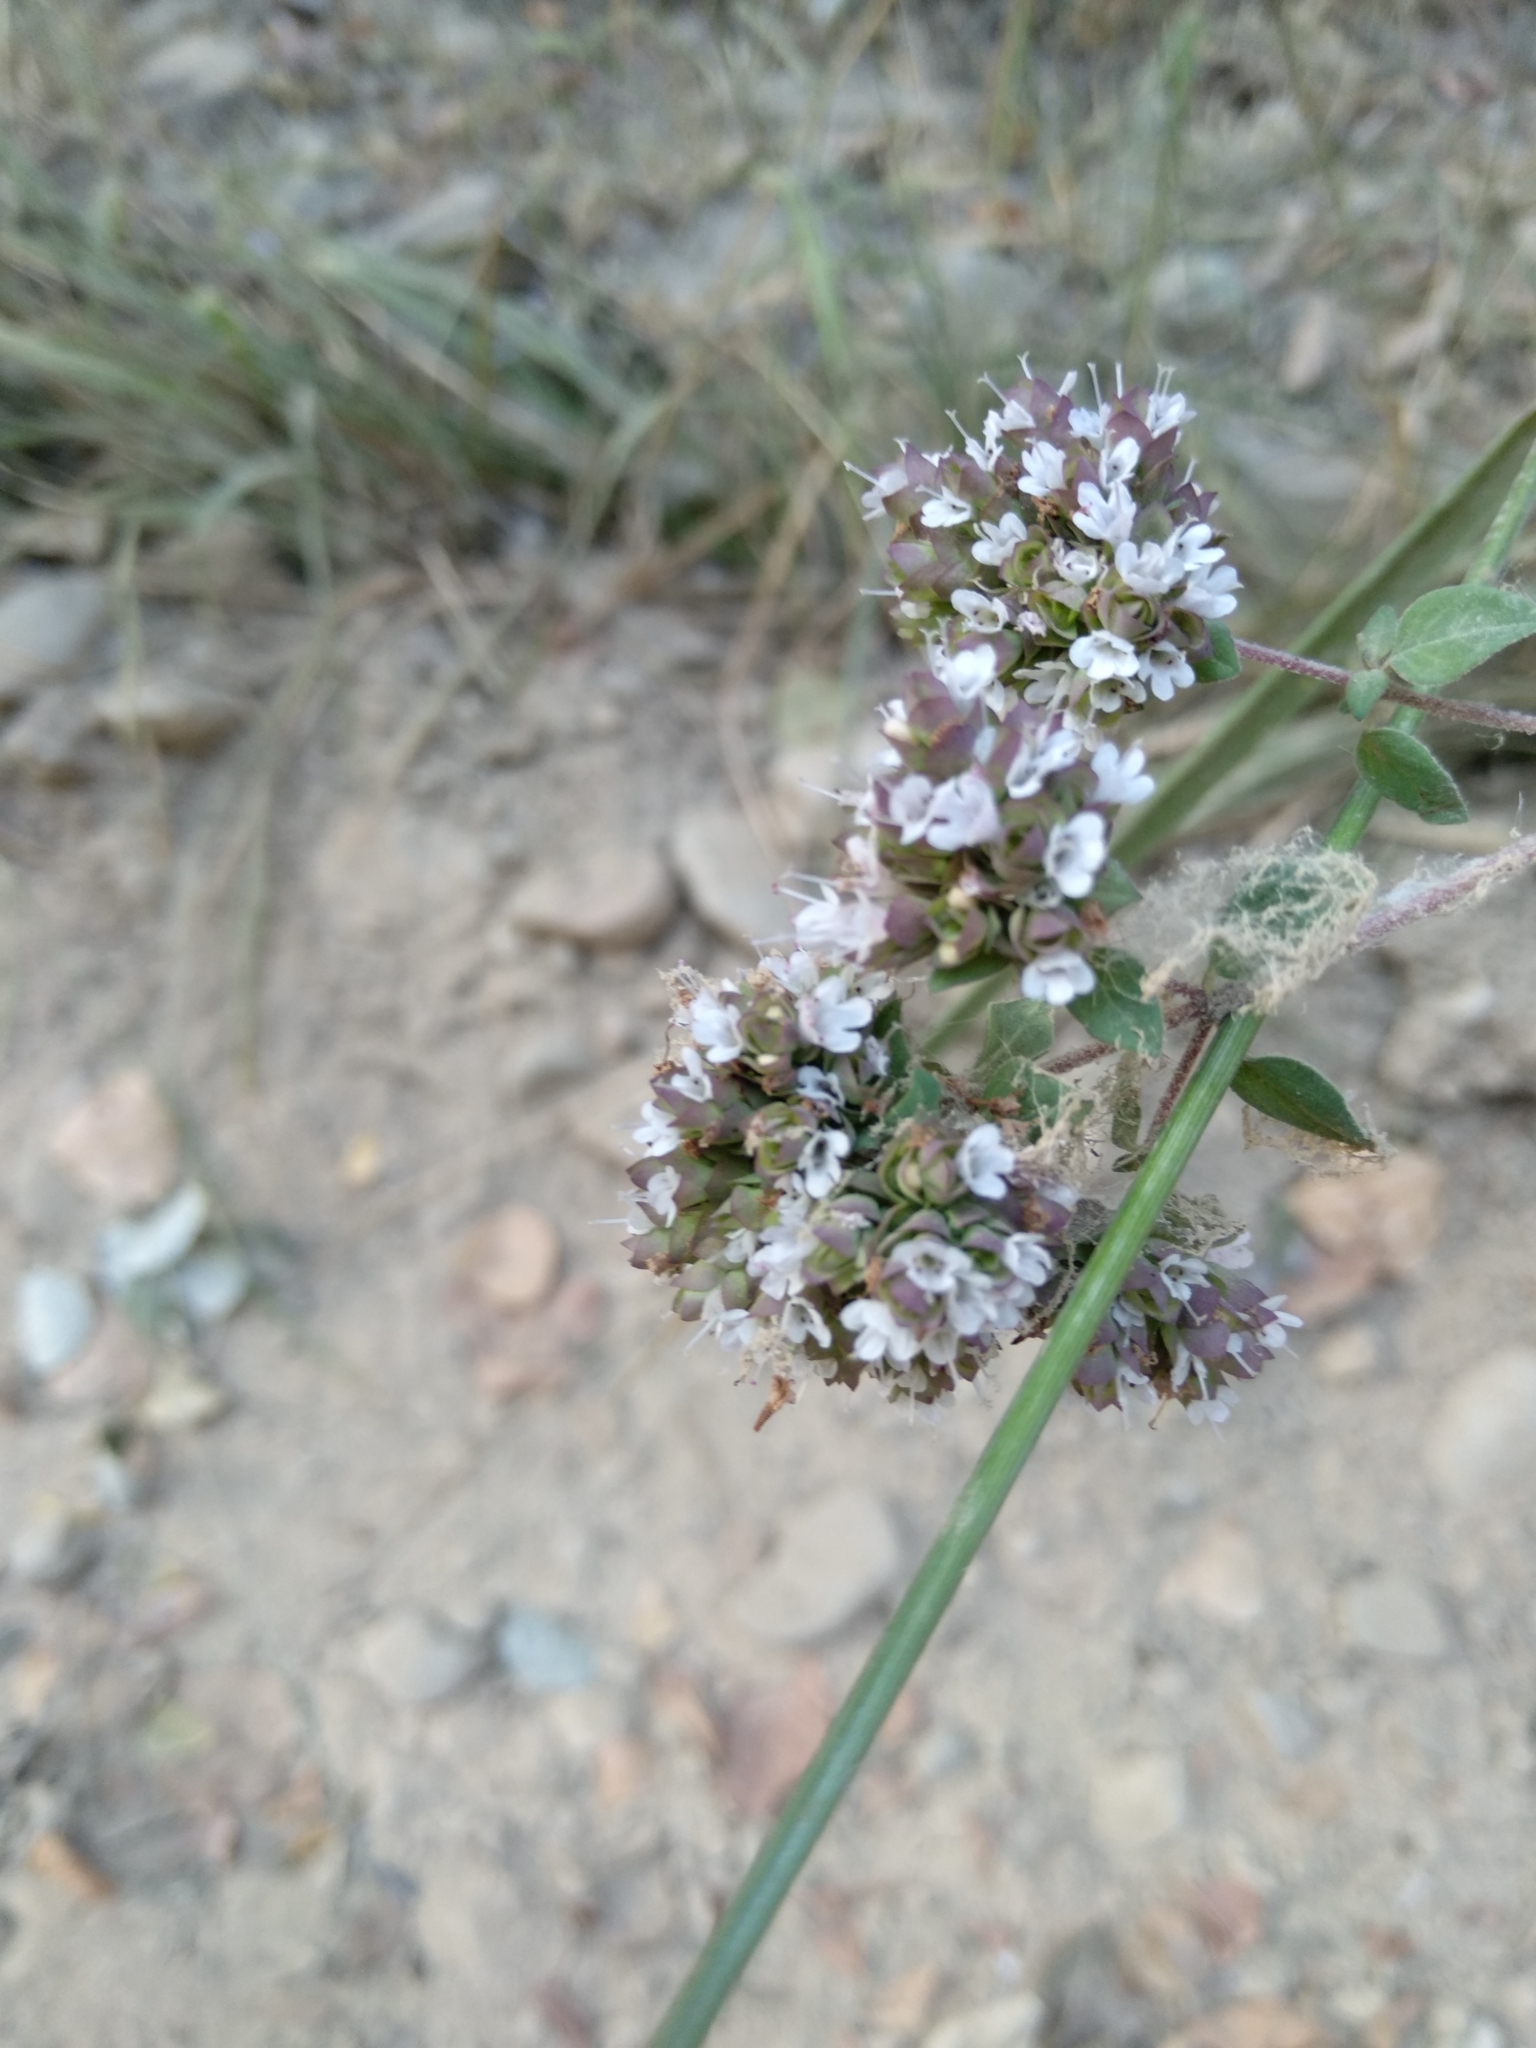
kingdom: Plantae
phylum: Tracheophyta
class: Magnoliopsida
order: Lamiales
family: Lamiaceae
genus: Origanum
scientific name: Origanum vulgare
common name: Wild marjoram
